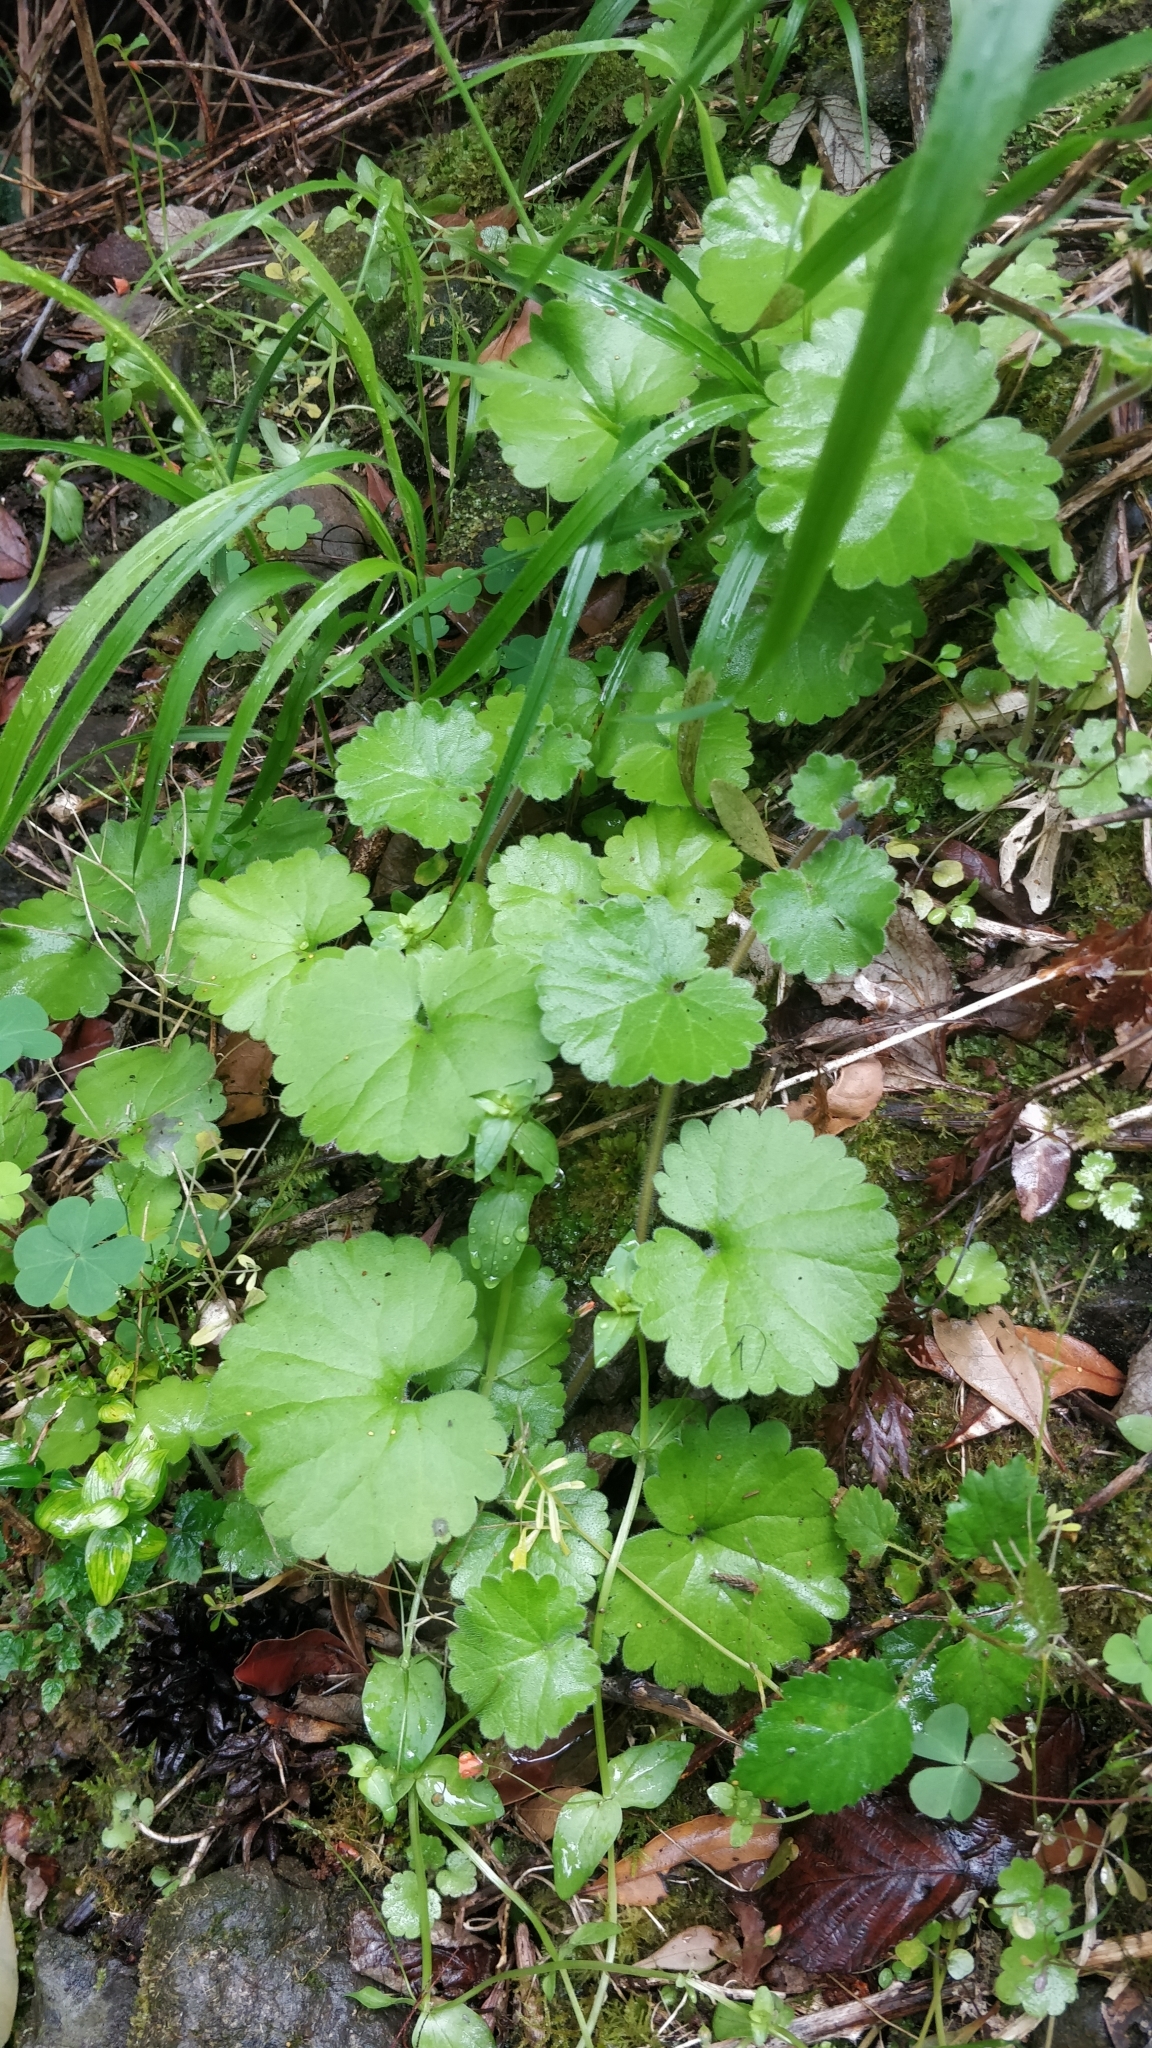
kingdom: Plantae
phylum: Tracheophyta
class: Magnoliopsida
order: Lamiales
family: Plantaginaceae
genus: Sibthorpia
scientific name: Sibthorpia peregrina
